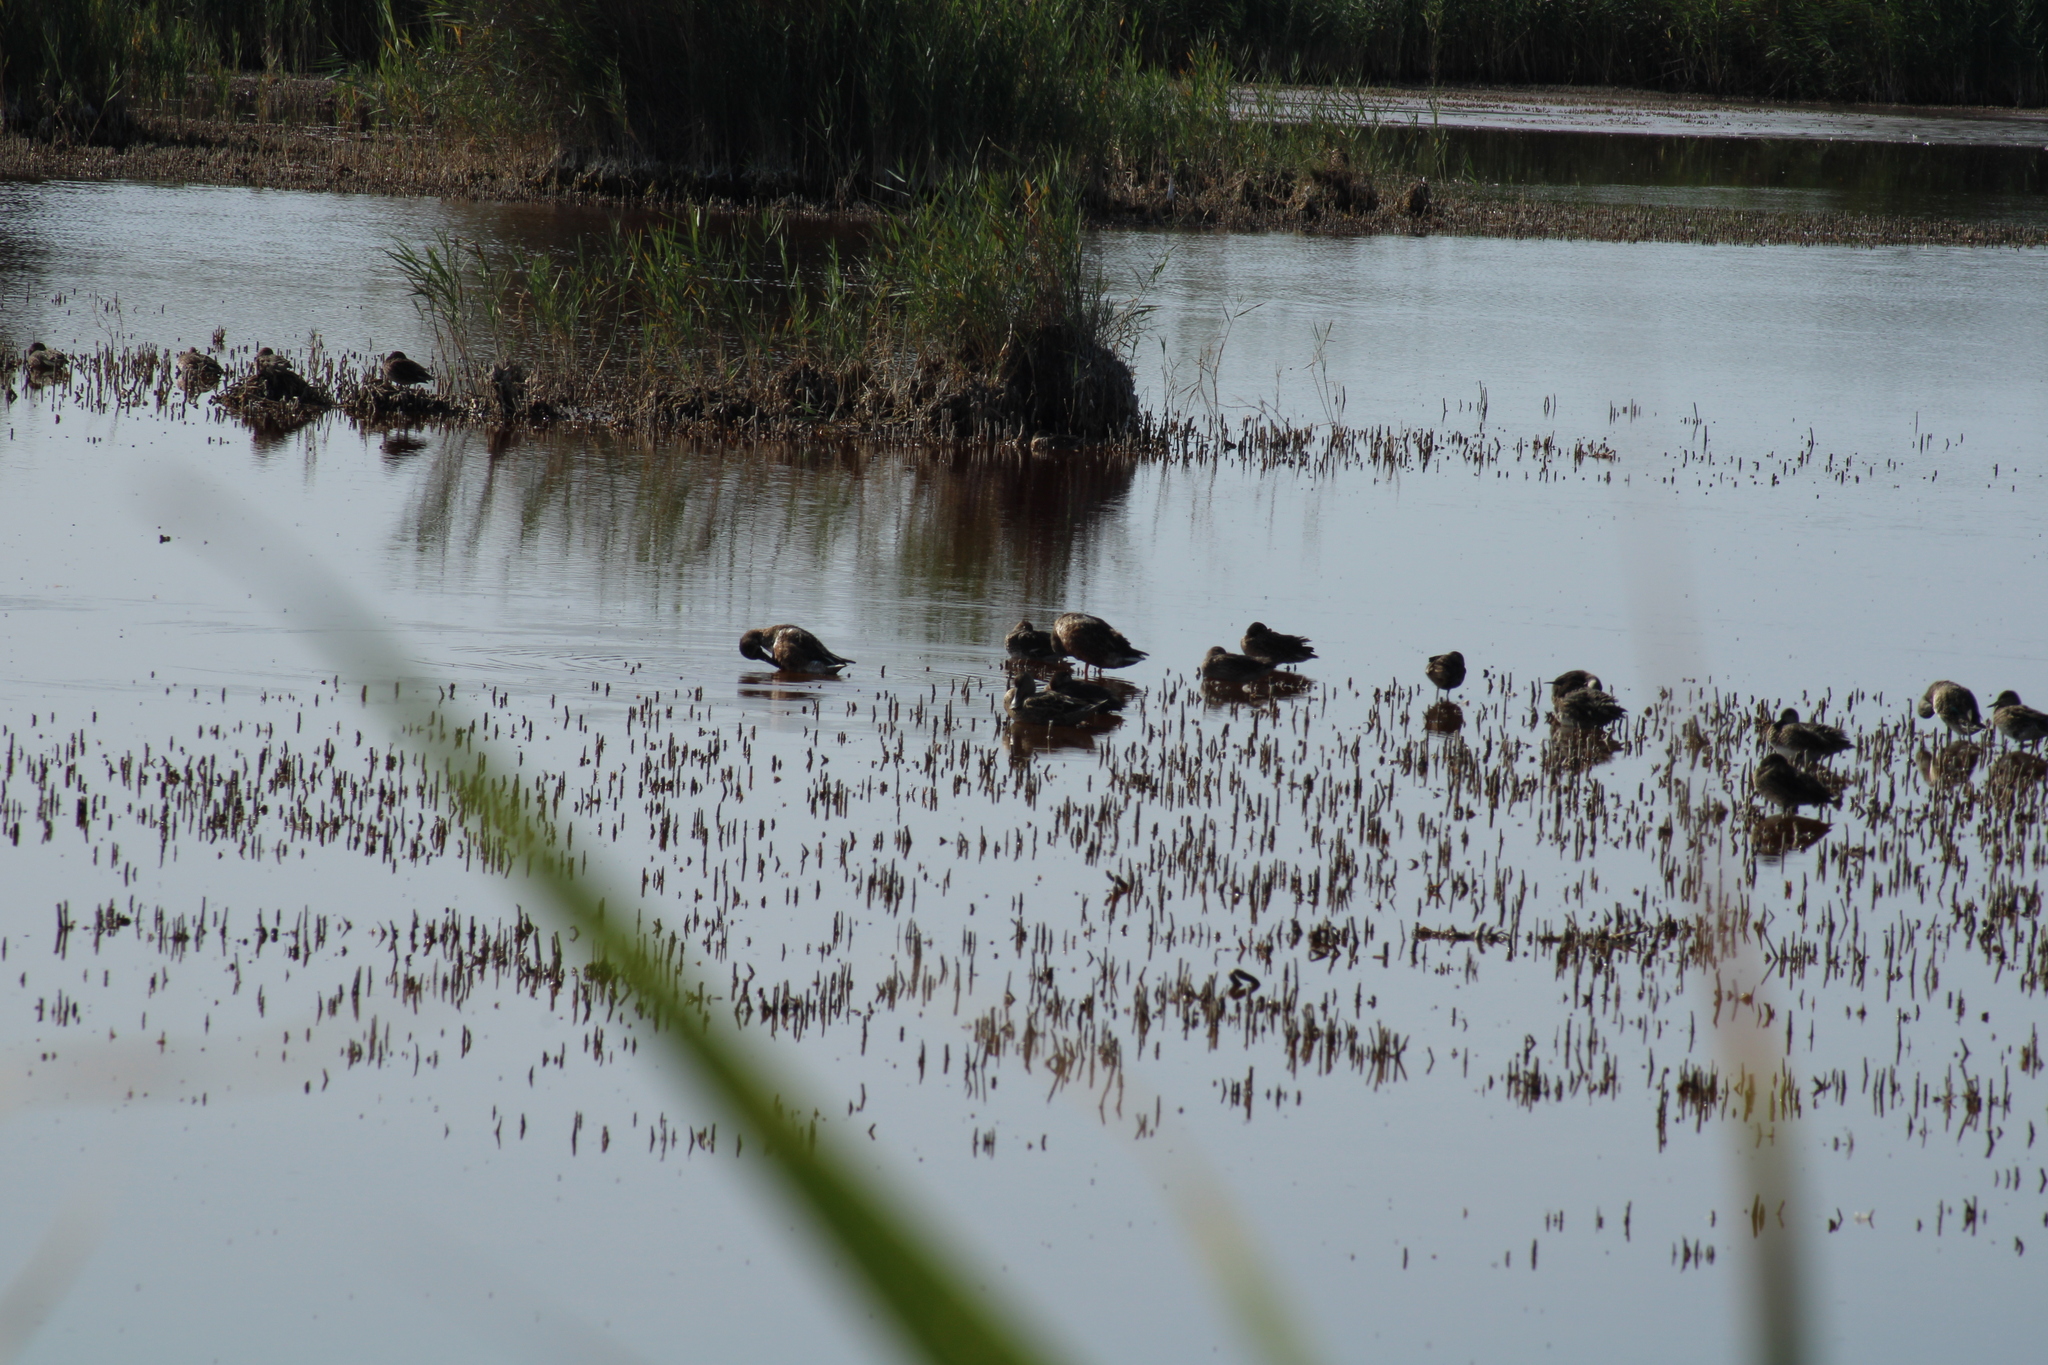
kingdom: Animalia
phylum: Chordata
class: Aves
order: Anseriformes
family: Anatidae
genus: Spatula
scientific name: Spatula clypeata
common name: Northern shoveler
